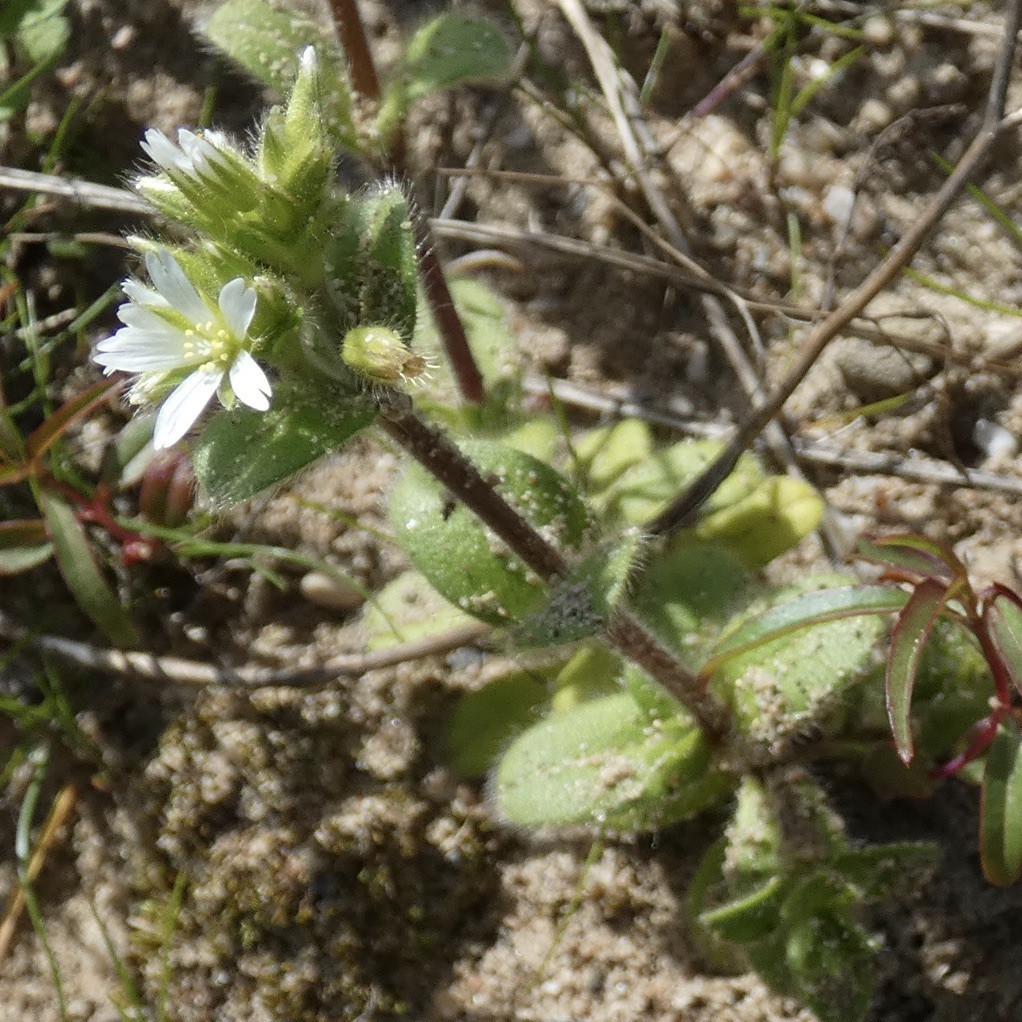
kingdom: Plantae
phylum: Tracheophyta
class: Magnoliopsida
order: Caryophyllales
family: Caryophyllaceae
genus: Cerastium
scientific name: Cerastium glomeratum
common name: Sticky chickweed
